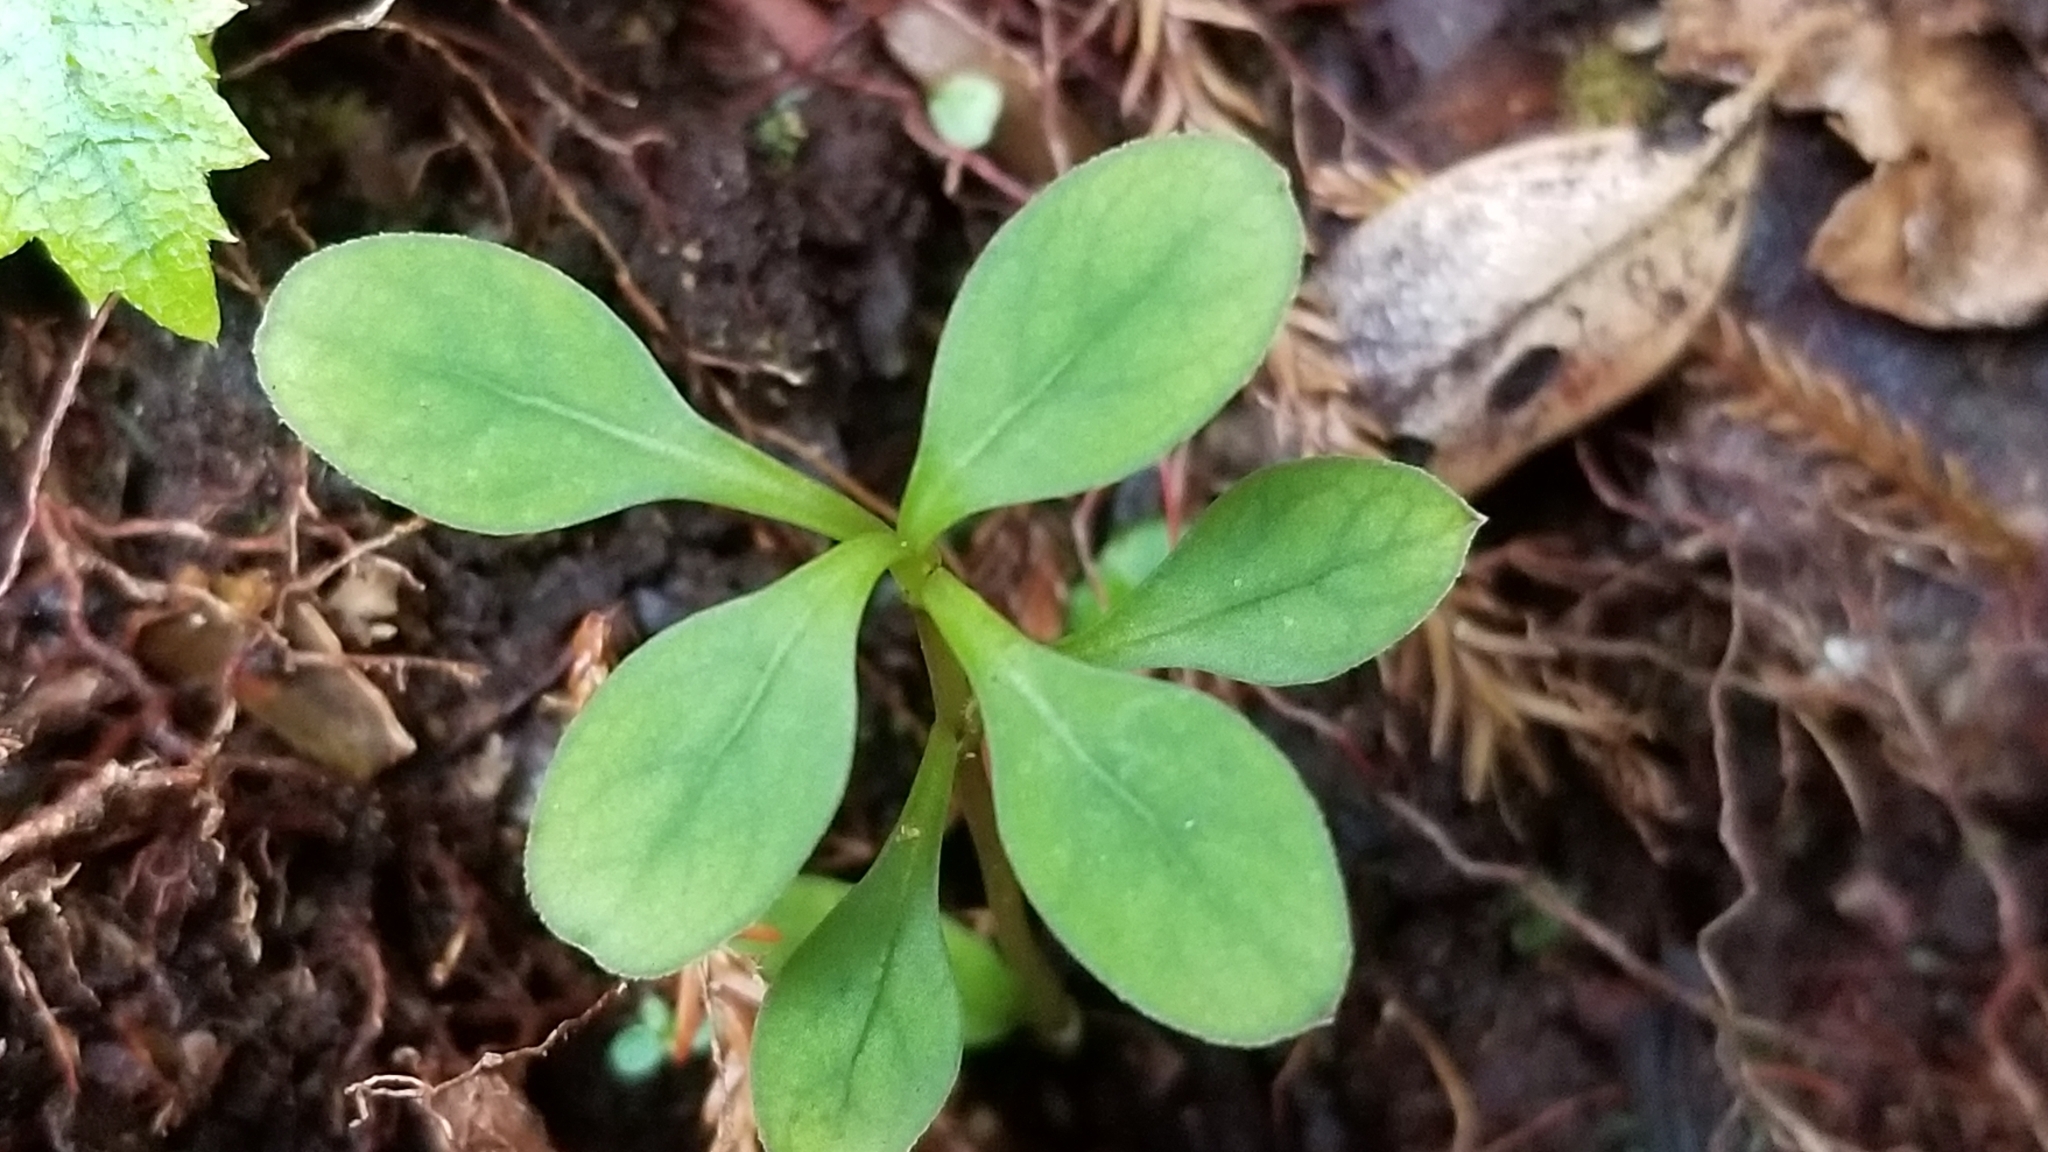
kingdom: Plantae
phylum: Tracheophyta
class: Magnoliopsida
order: Gentianales
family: Rubiaceae
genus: Coprosma
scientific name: Coprosma foetidissima
